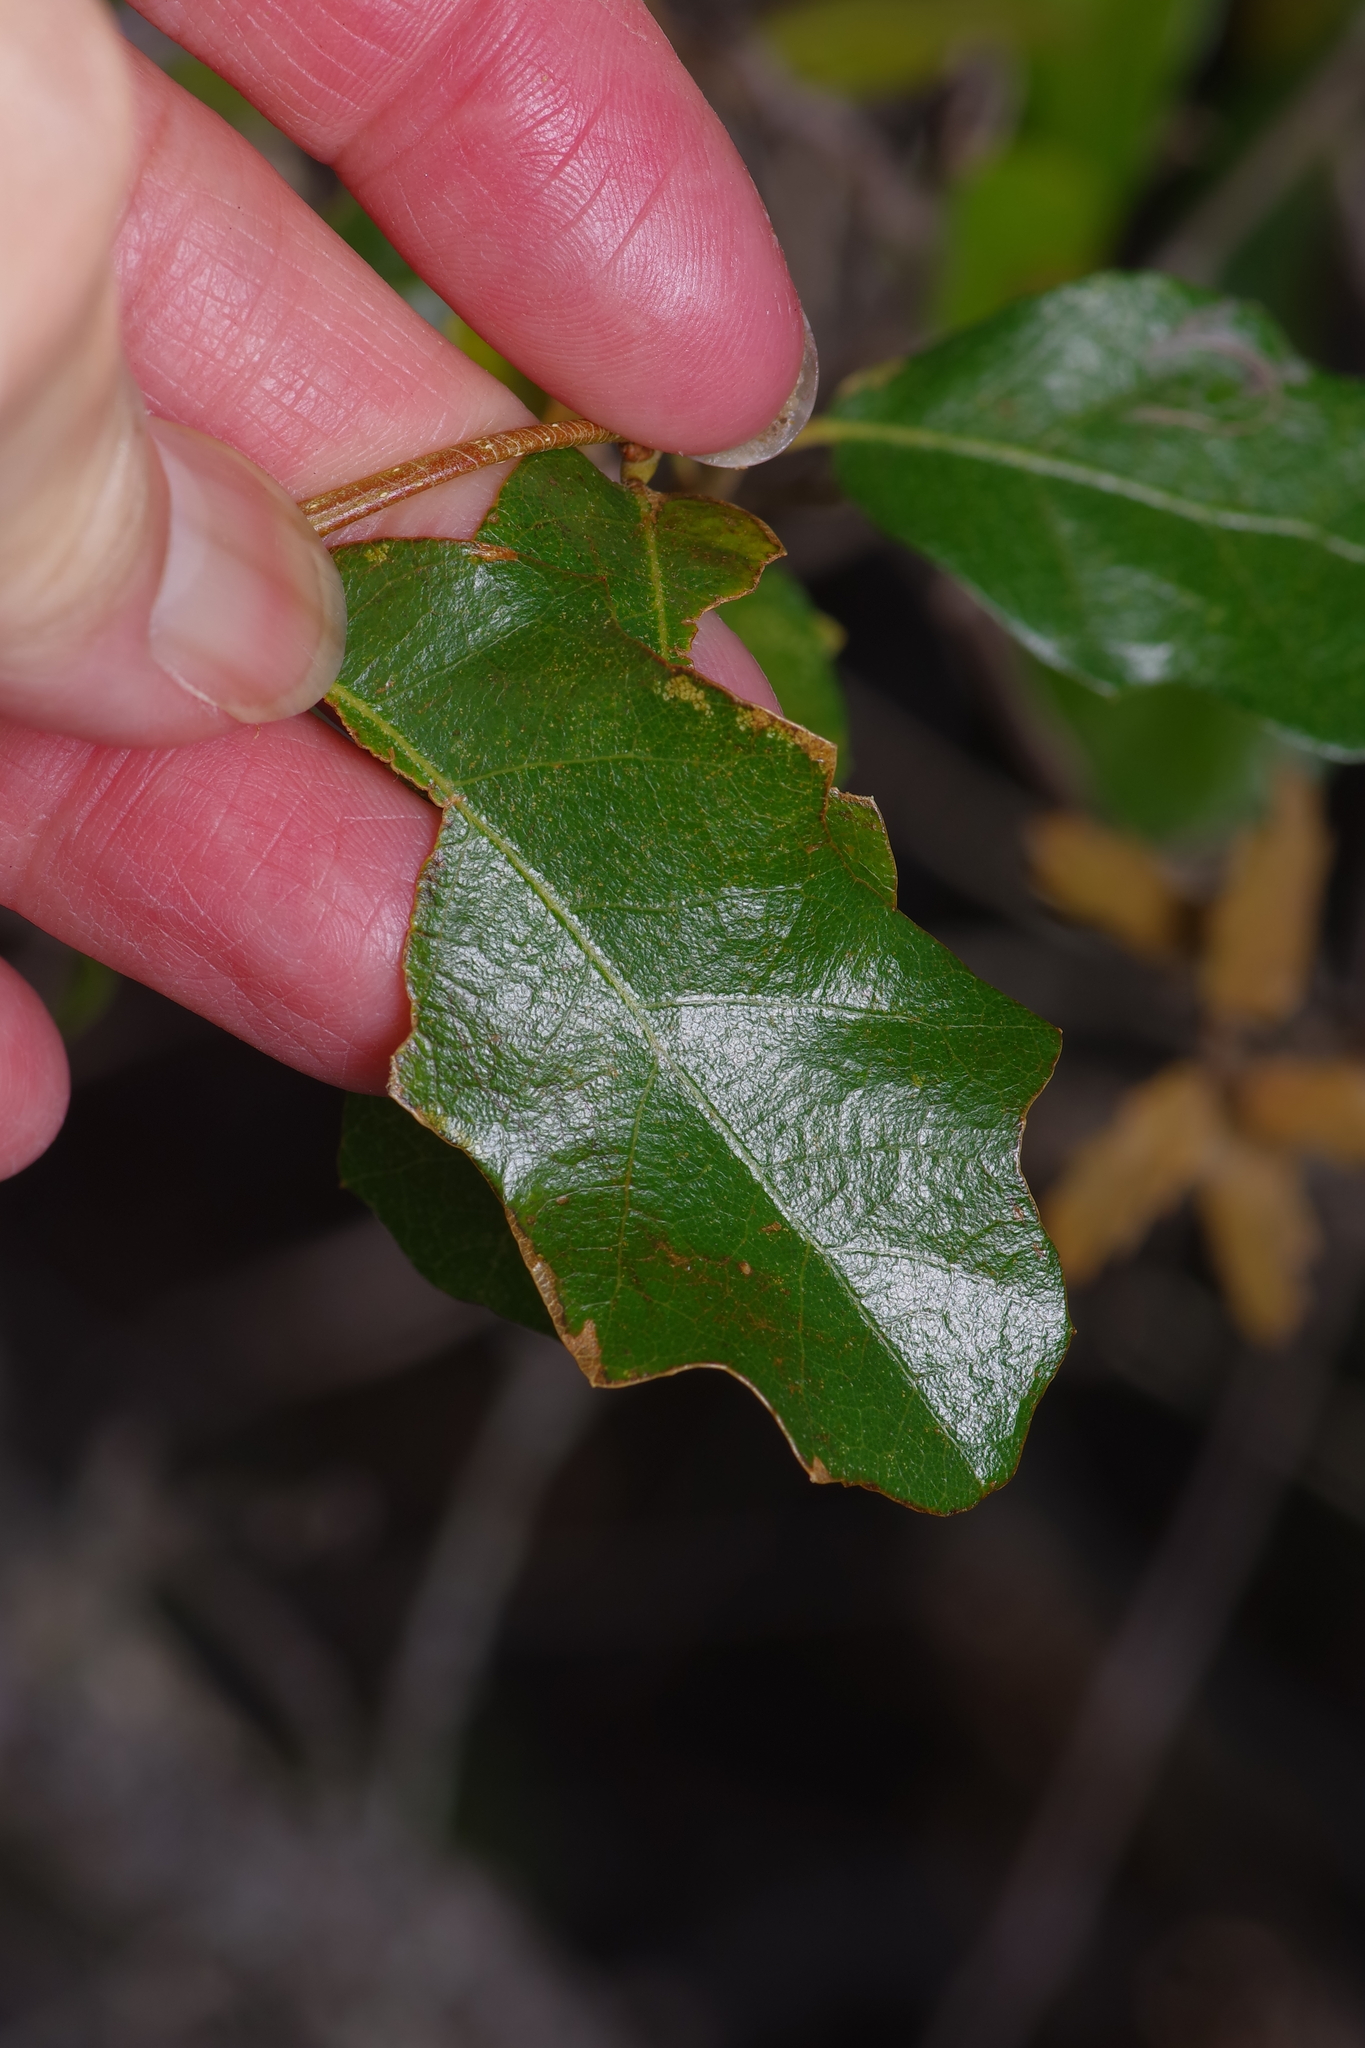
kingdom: Plantae
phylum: Tracheophyta
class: Magnoliopsida
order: Fagales
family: Fagaceae
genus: Quercus
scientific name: Quercus sinuata
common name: Durand oak
